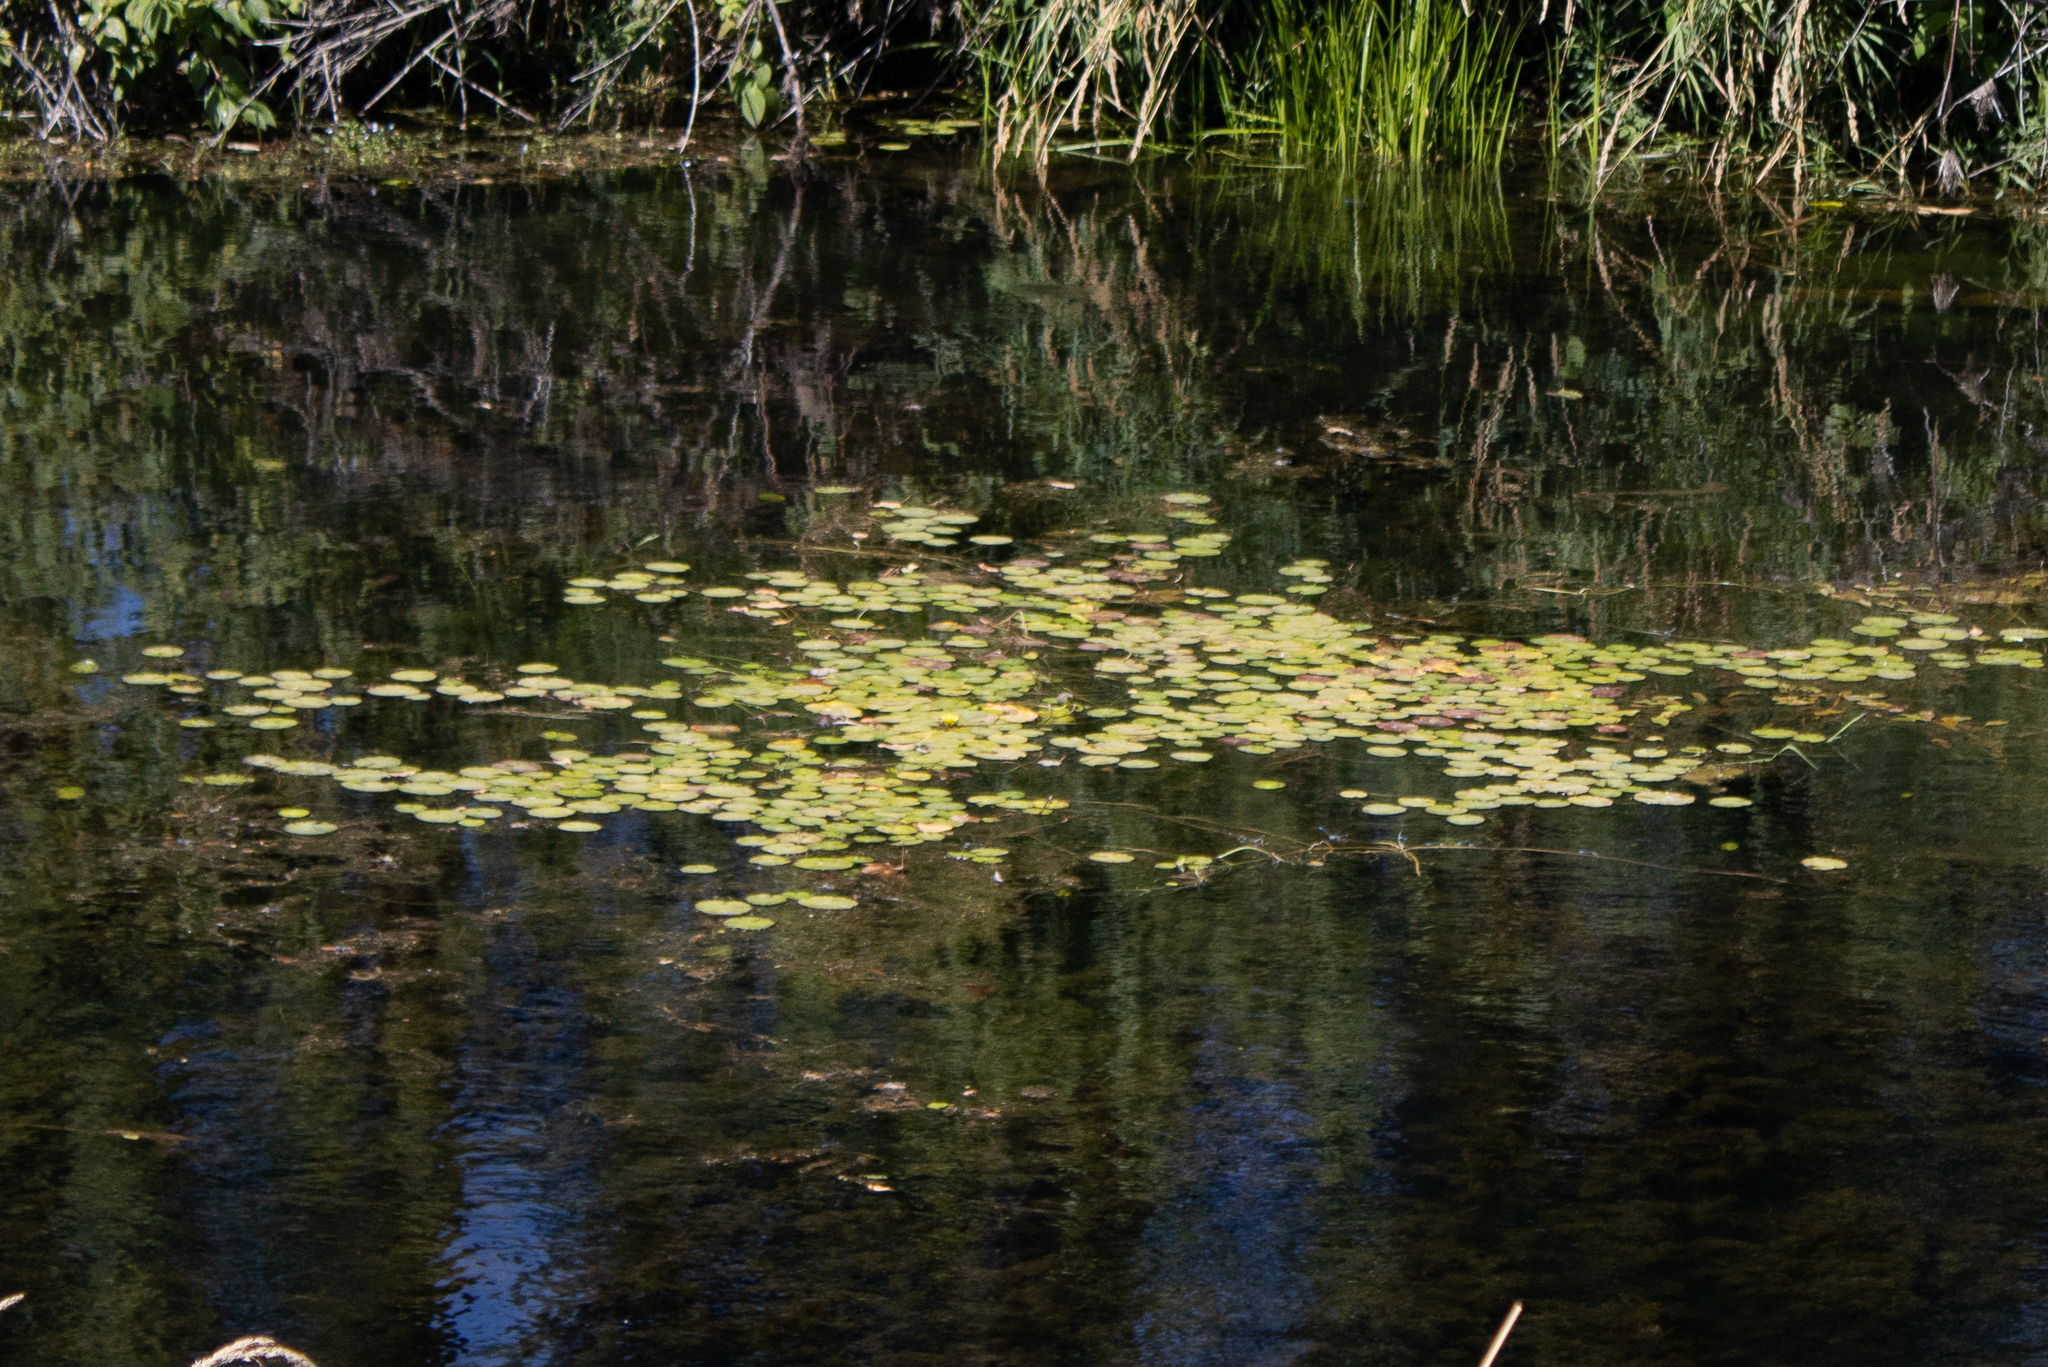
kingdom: Plantae
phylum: Tracheophyta
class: Magnoliopsida
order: Nymphaeales
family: Cabombaceae
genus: Brasenia
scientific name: Brasenia schreberi
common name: Water-shield
